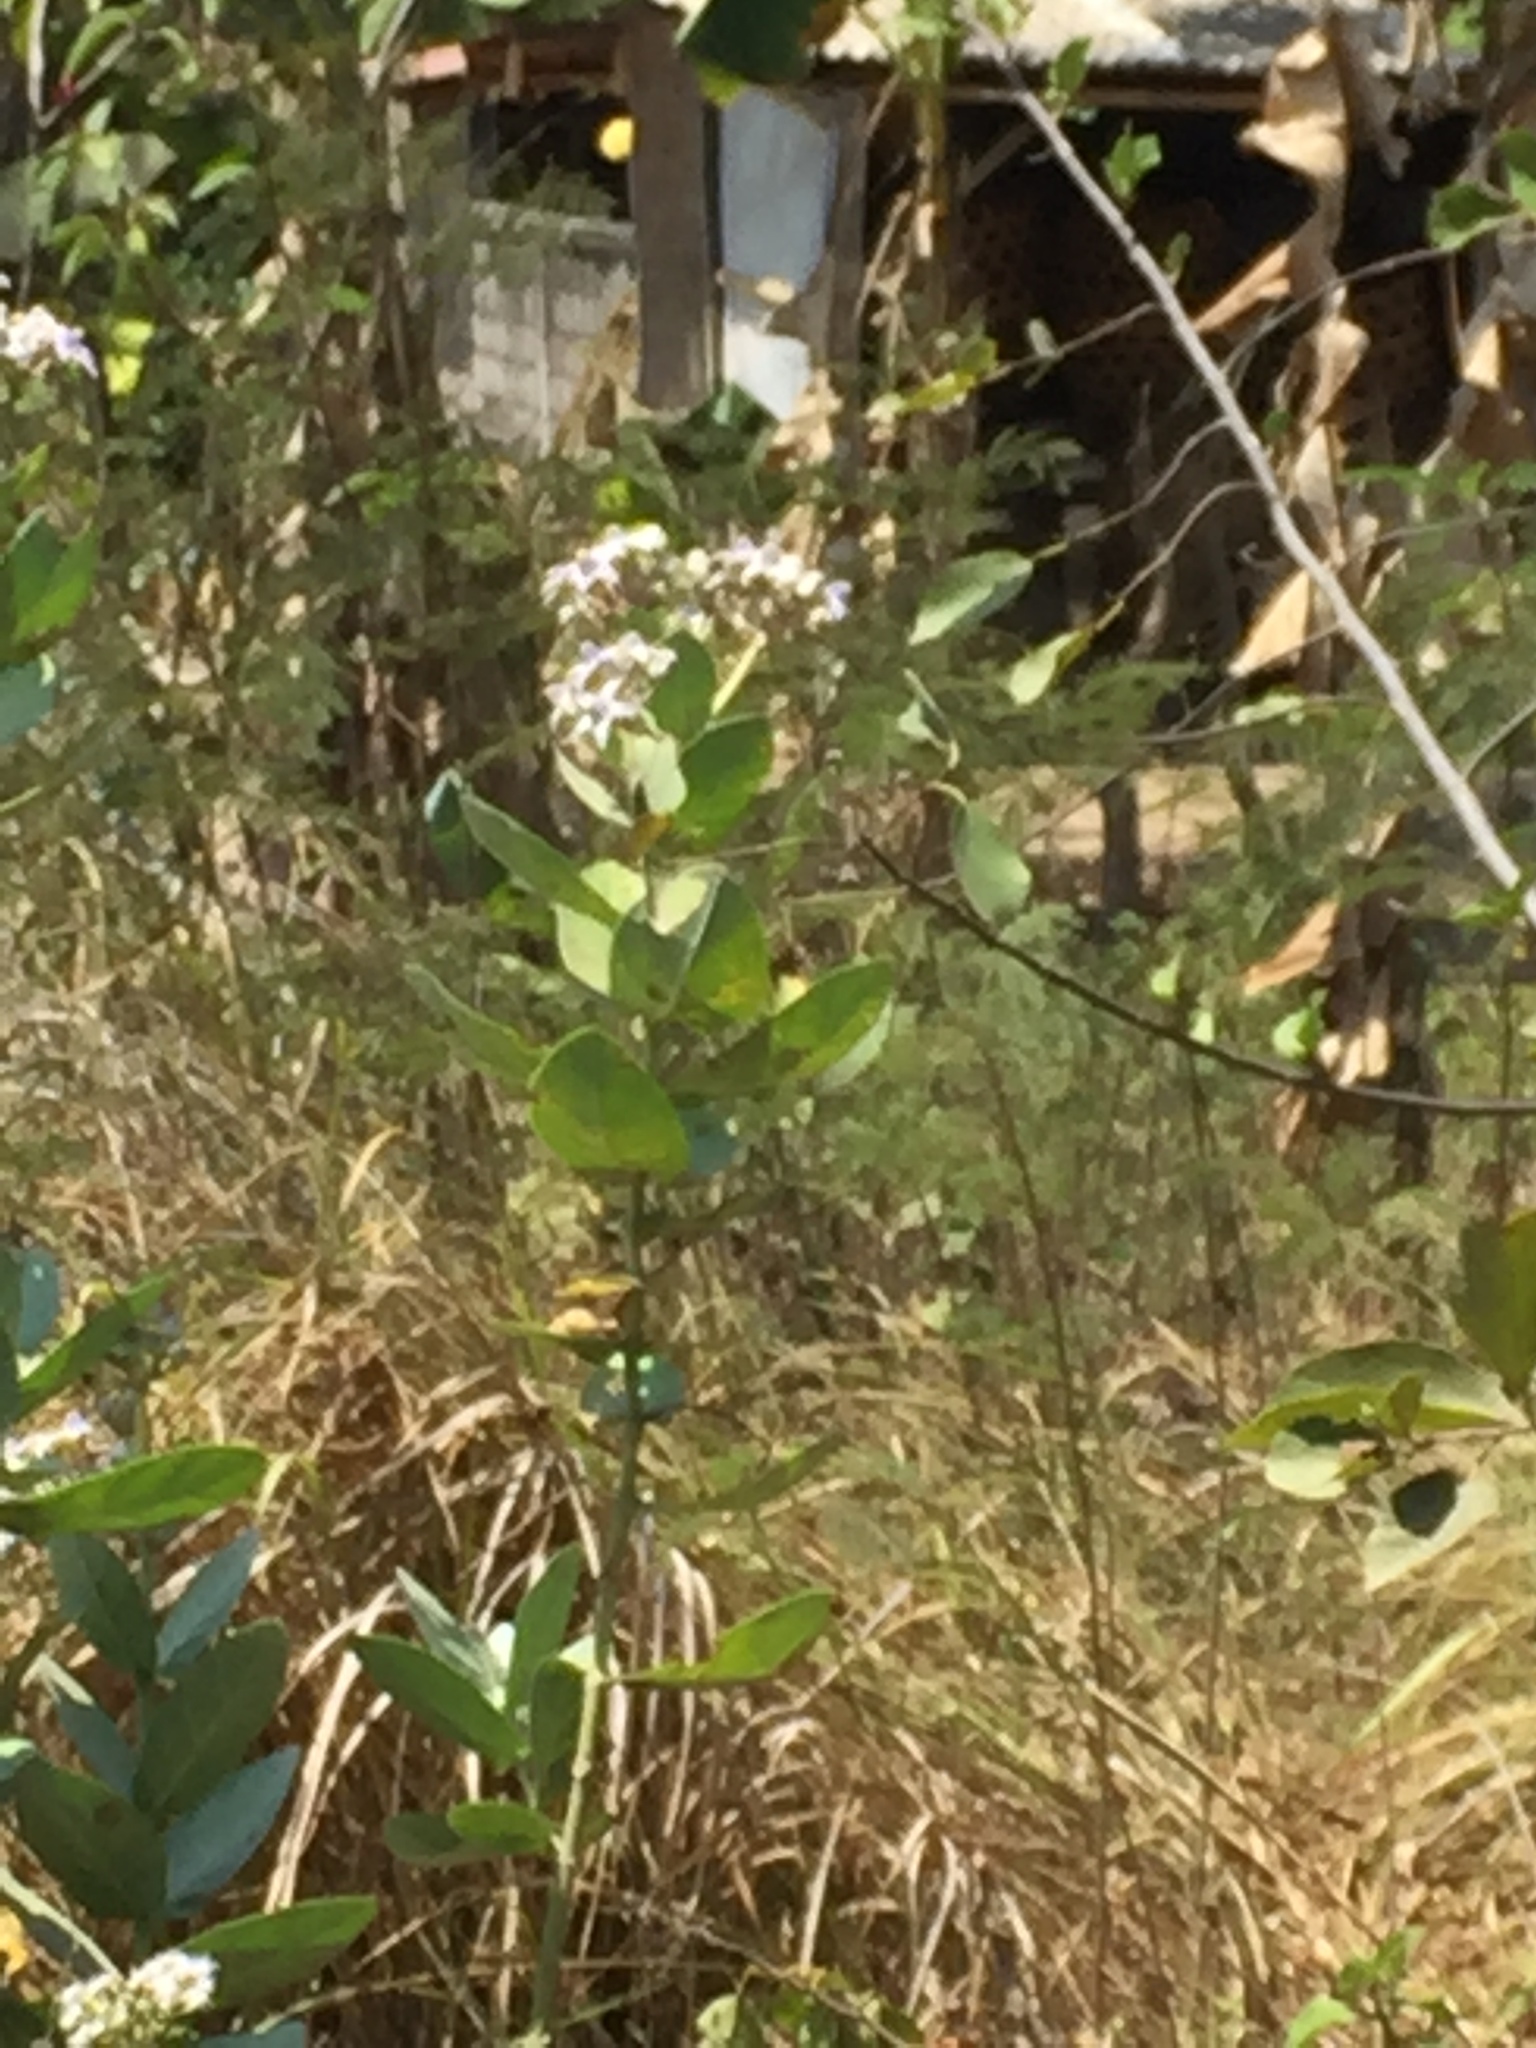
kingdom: Plantae
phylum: Tracheophyta
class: Magnoliopsida
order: Gentianales
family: Apocynaceae
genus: Calotropis
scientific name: Calotropis gigantea
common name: Crown flower
